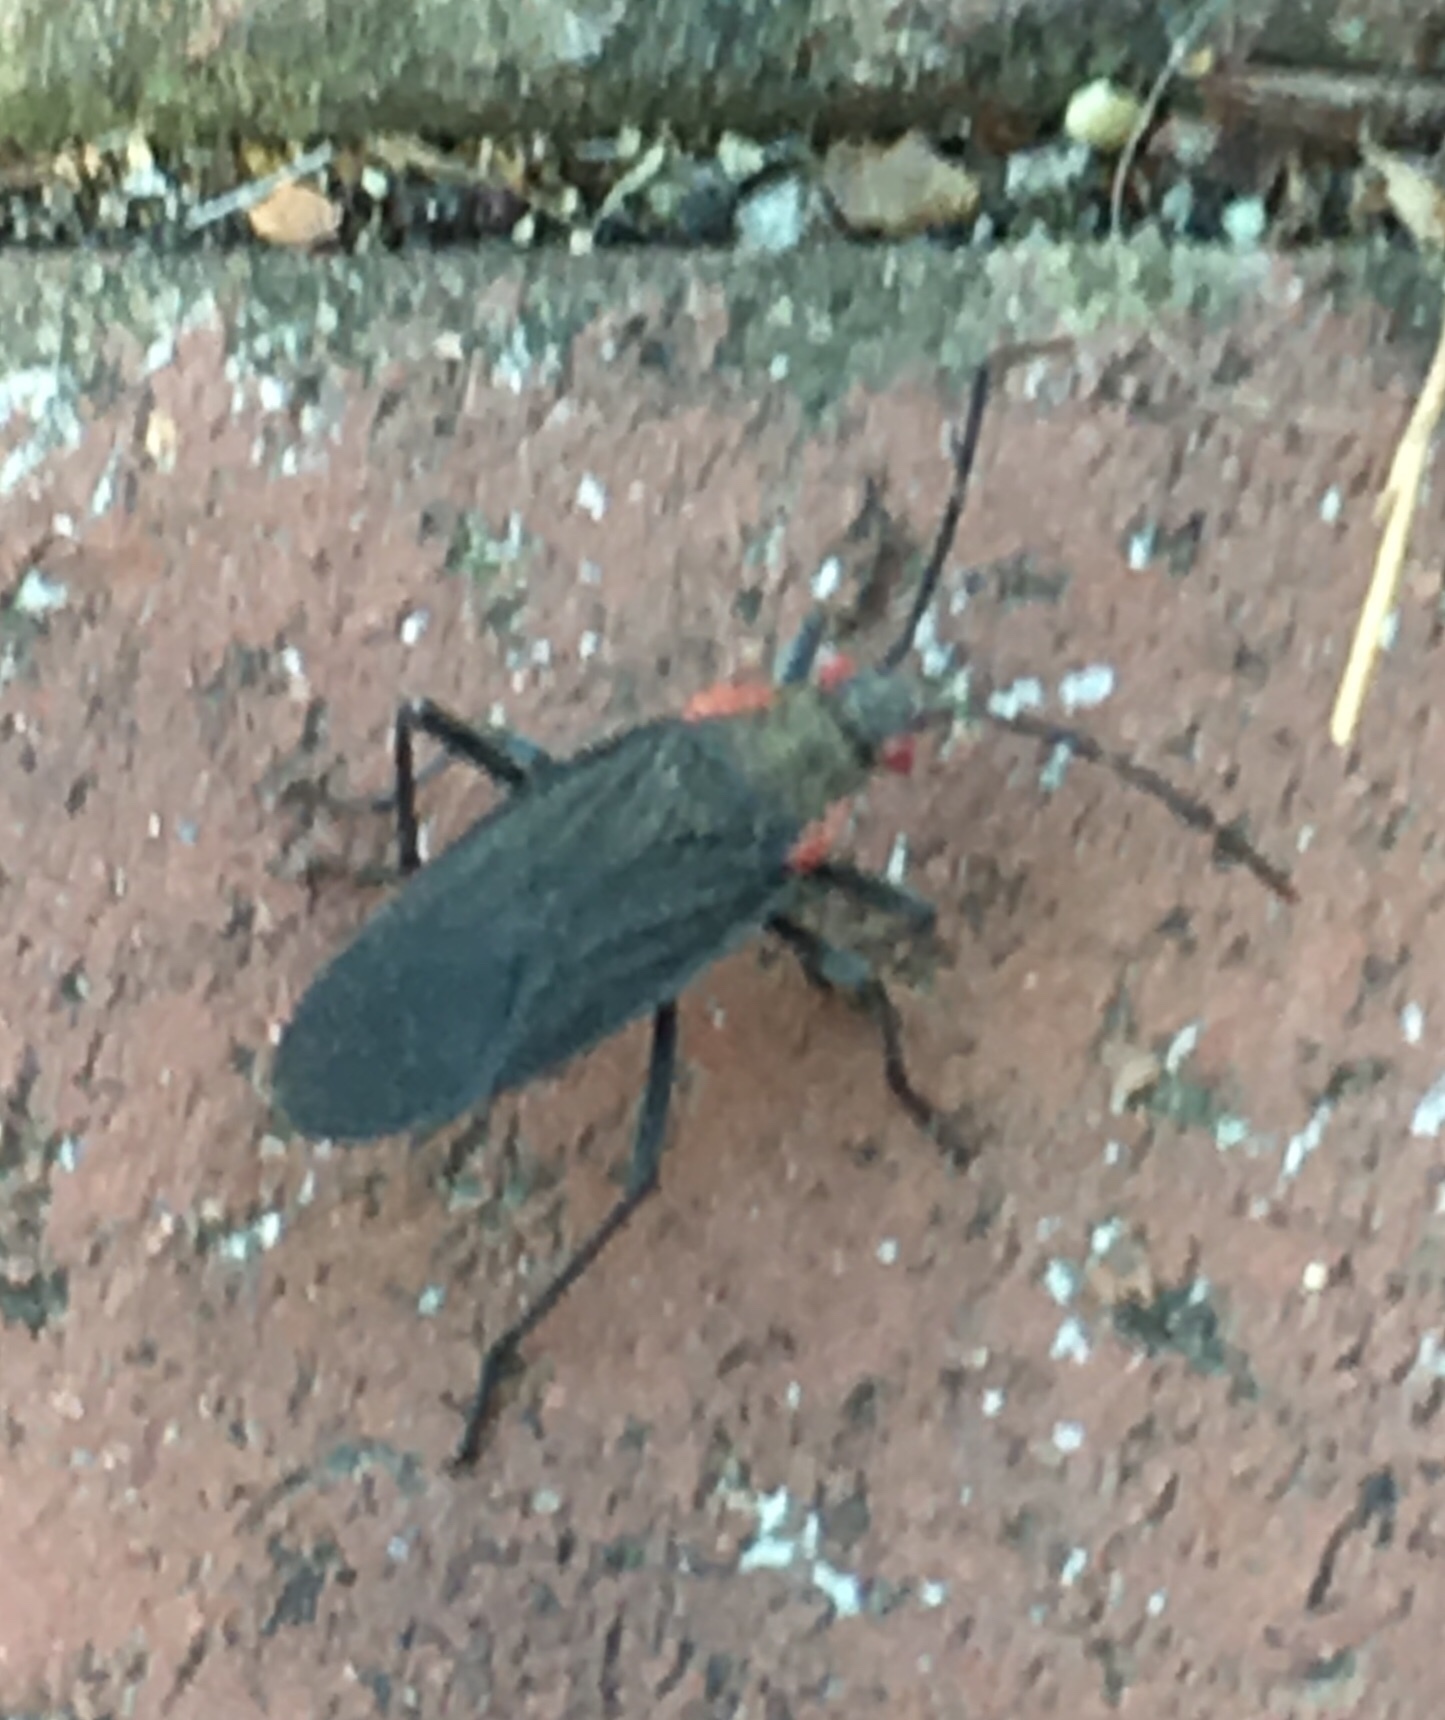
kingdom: Animalia
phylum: Arthropoda
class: Insecta
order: Hemiptera
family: Rhopalidae
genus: Jadera
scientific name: Jadera haematoloma
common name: Red-shouldered bug
